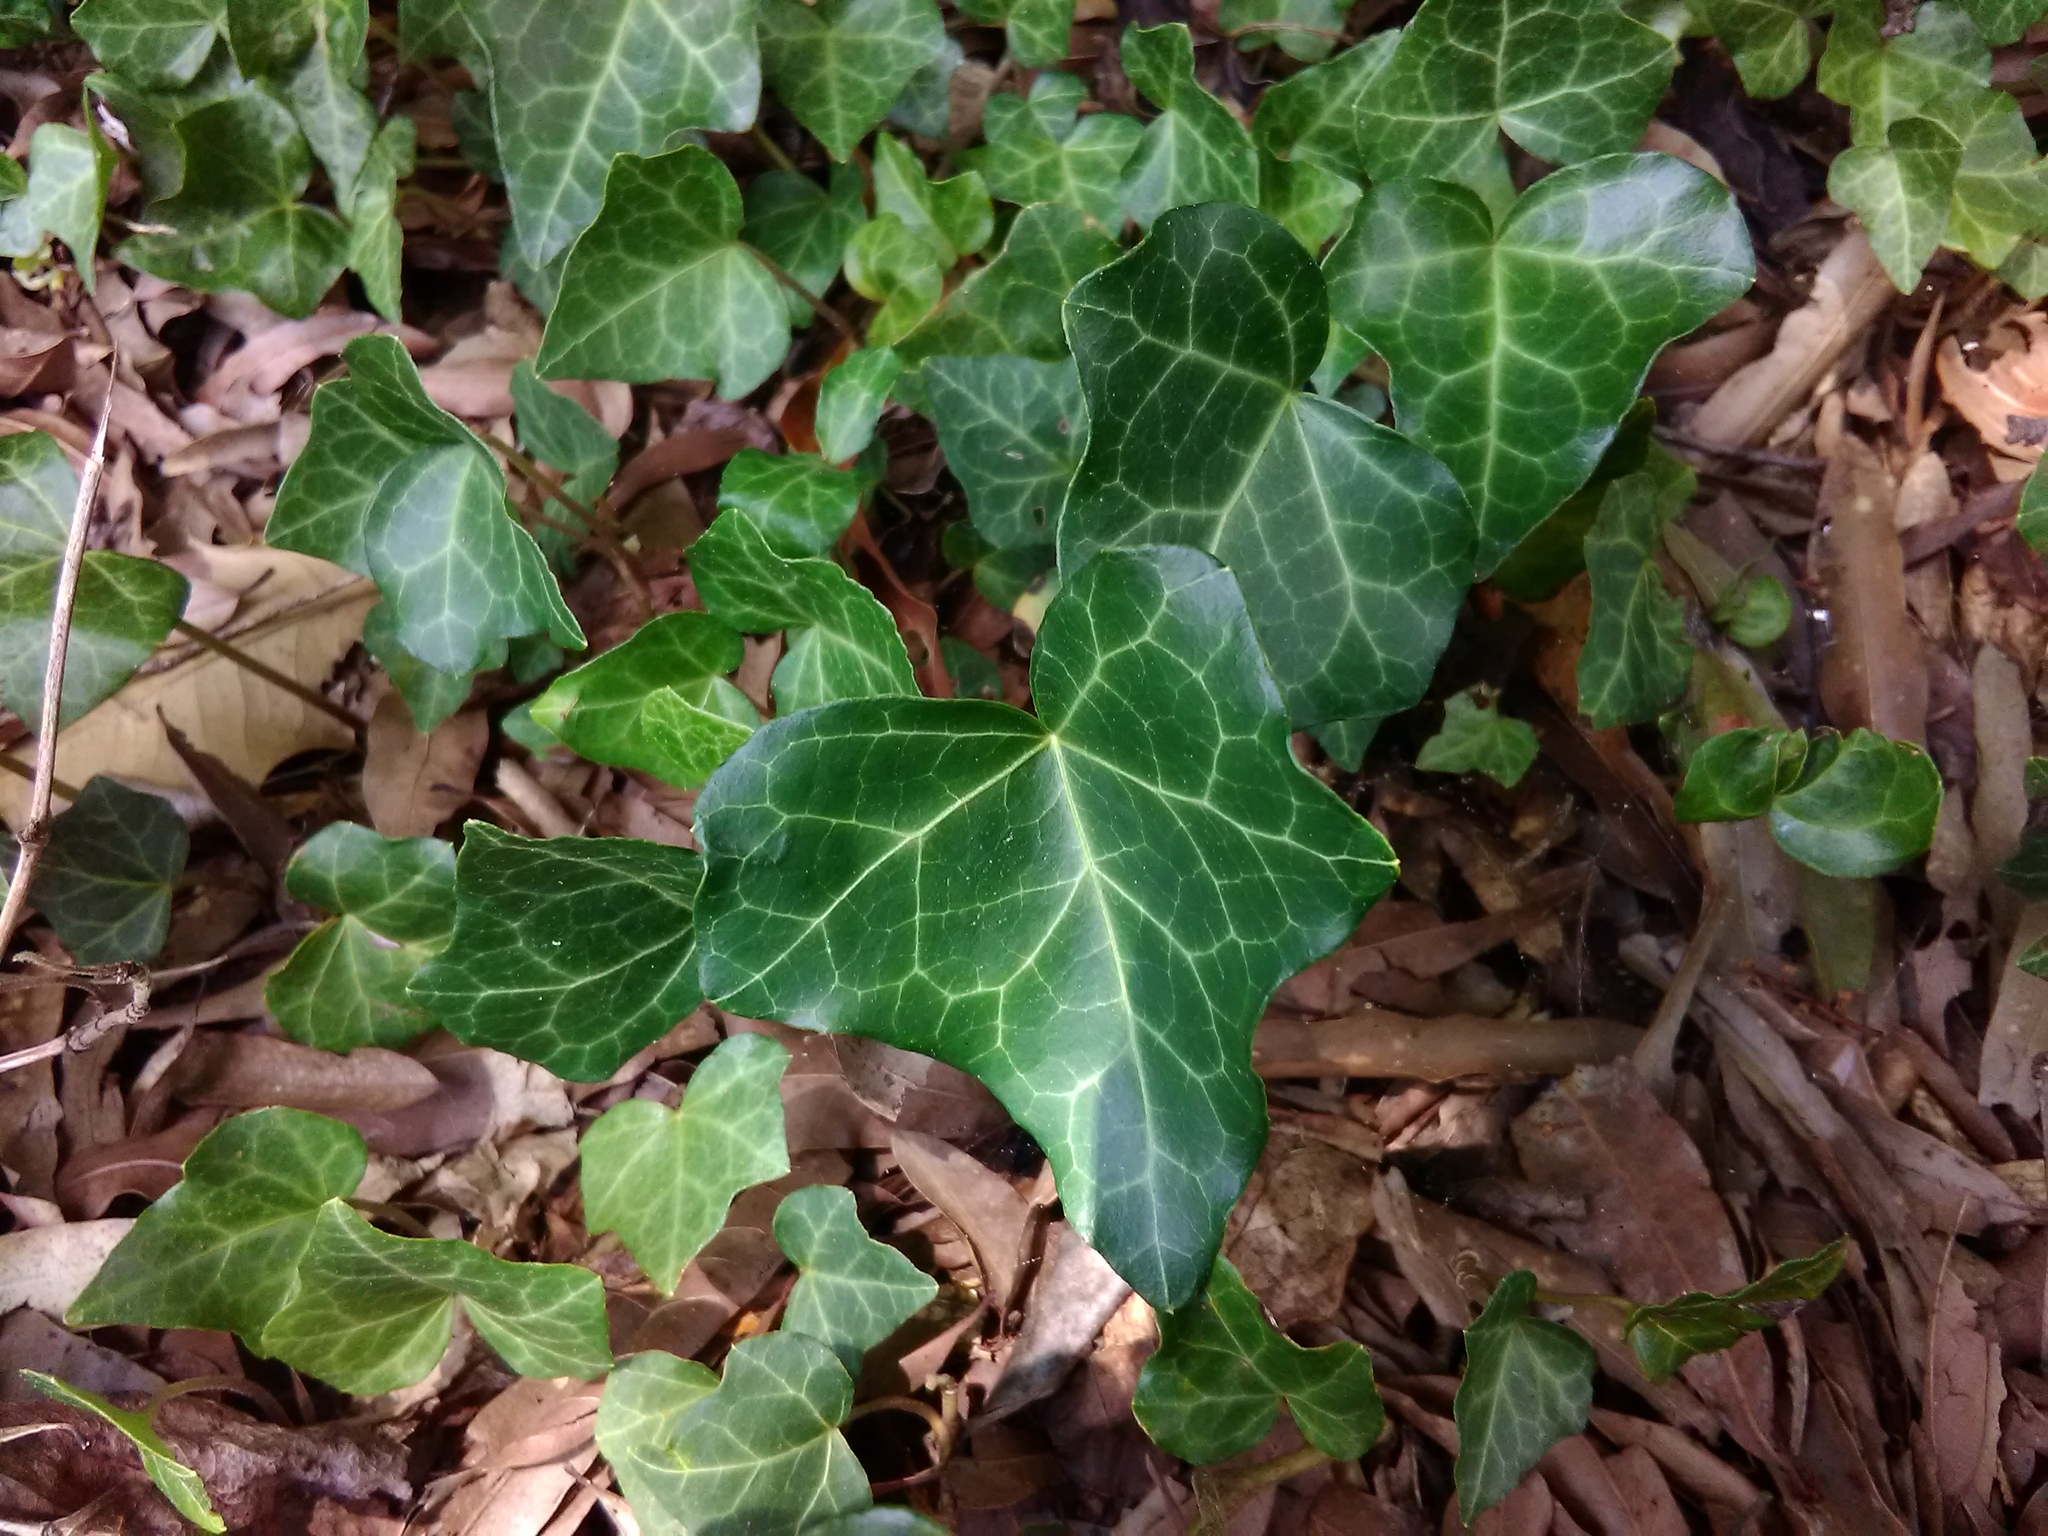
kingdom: Plantae
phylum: Tracheophyta
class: Magnoliopsida
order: Apiales
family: Araliaceae
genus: Hedera
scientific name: Hedera helix
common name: Ivy
